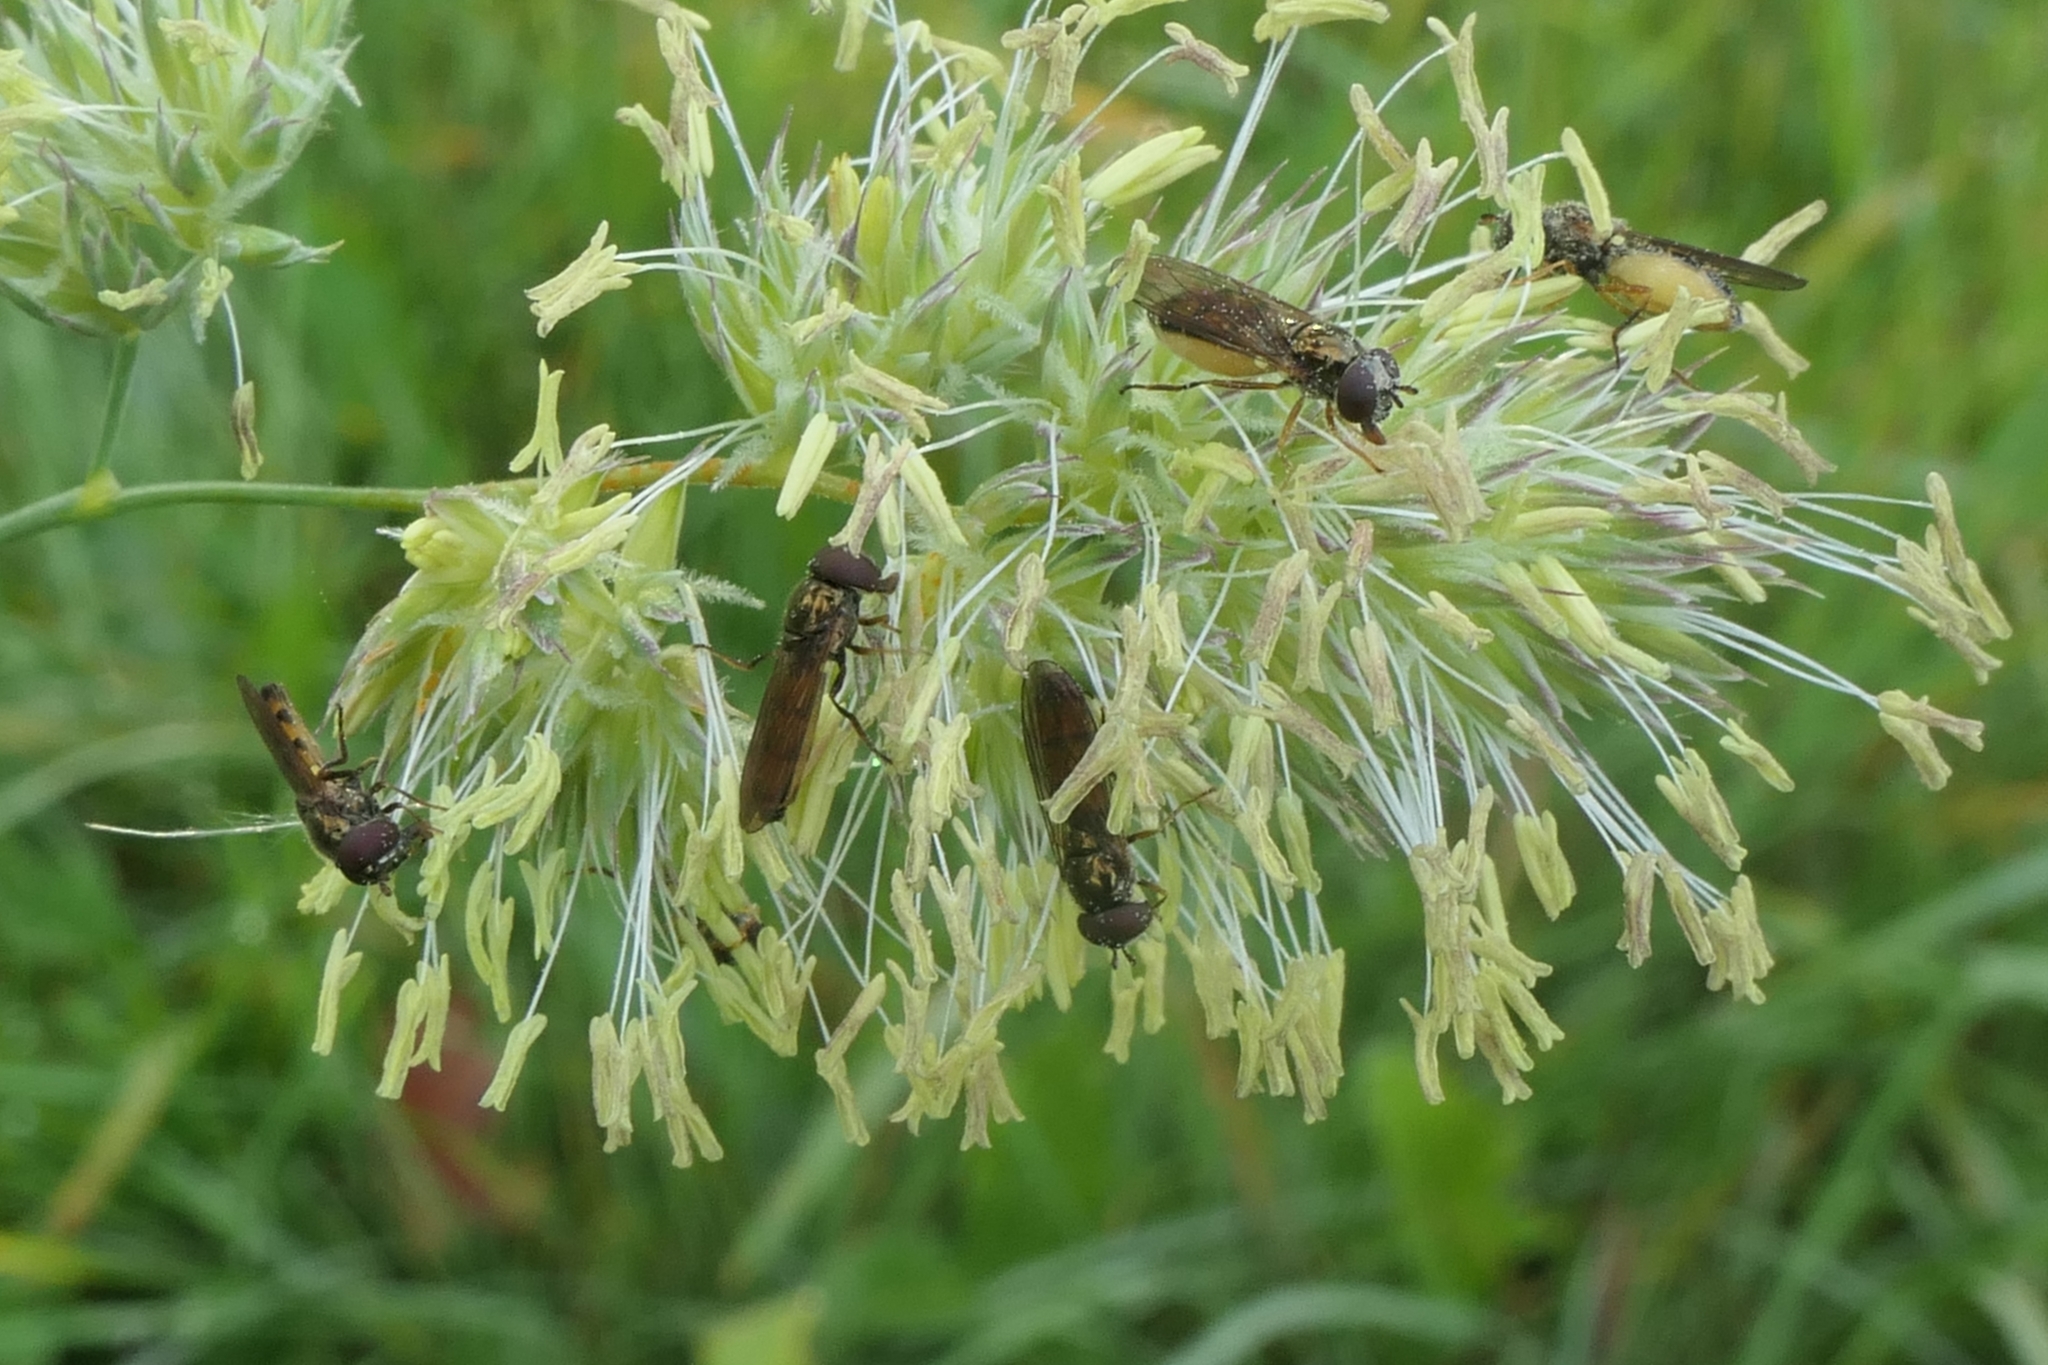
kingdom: Animalia
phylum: Arthropoda
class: Insecta
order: Diptera
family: Syrphidae
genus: Melanostoma
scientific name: Melanostoma fasciatum
